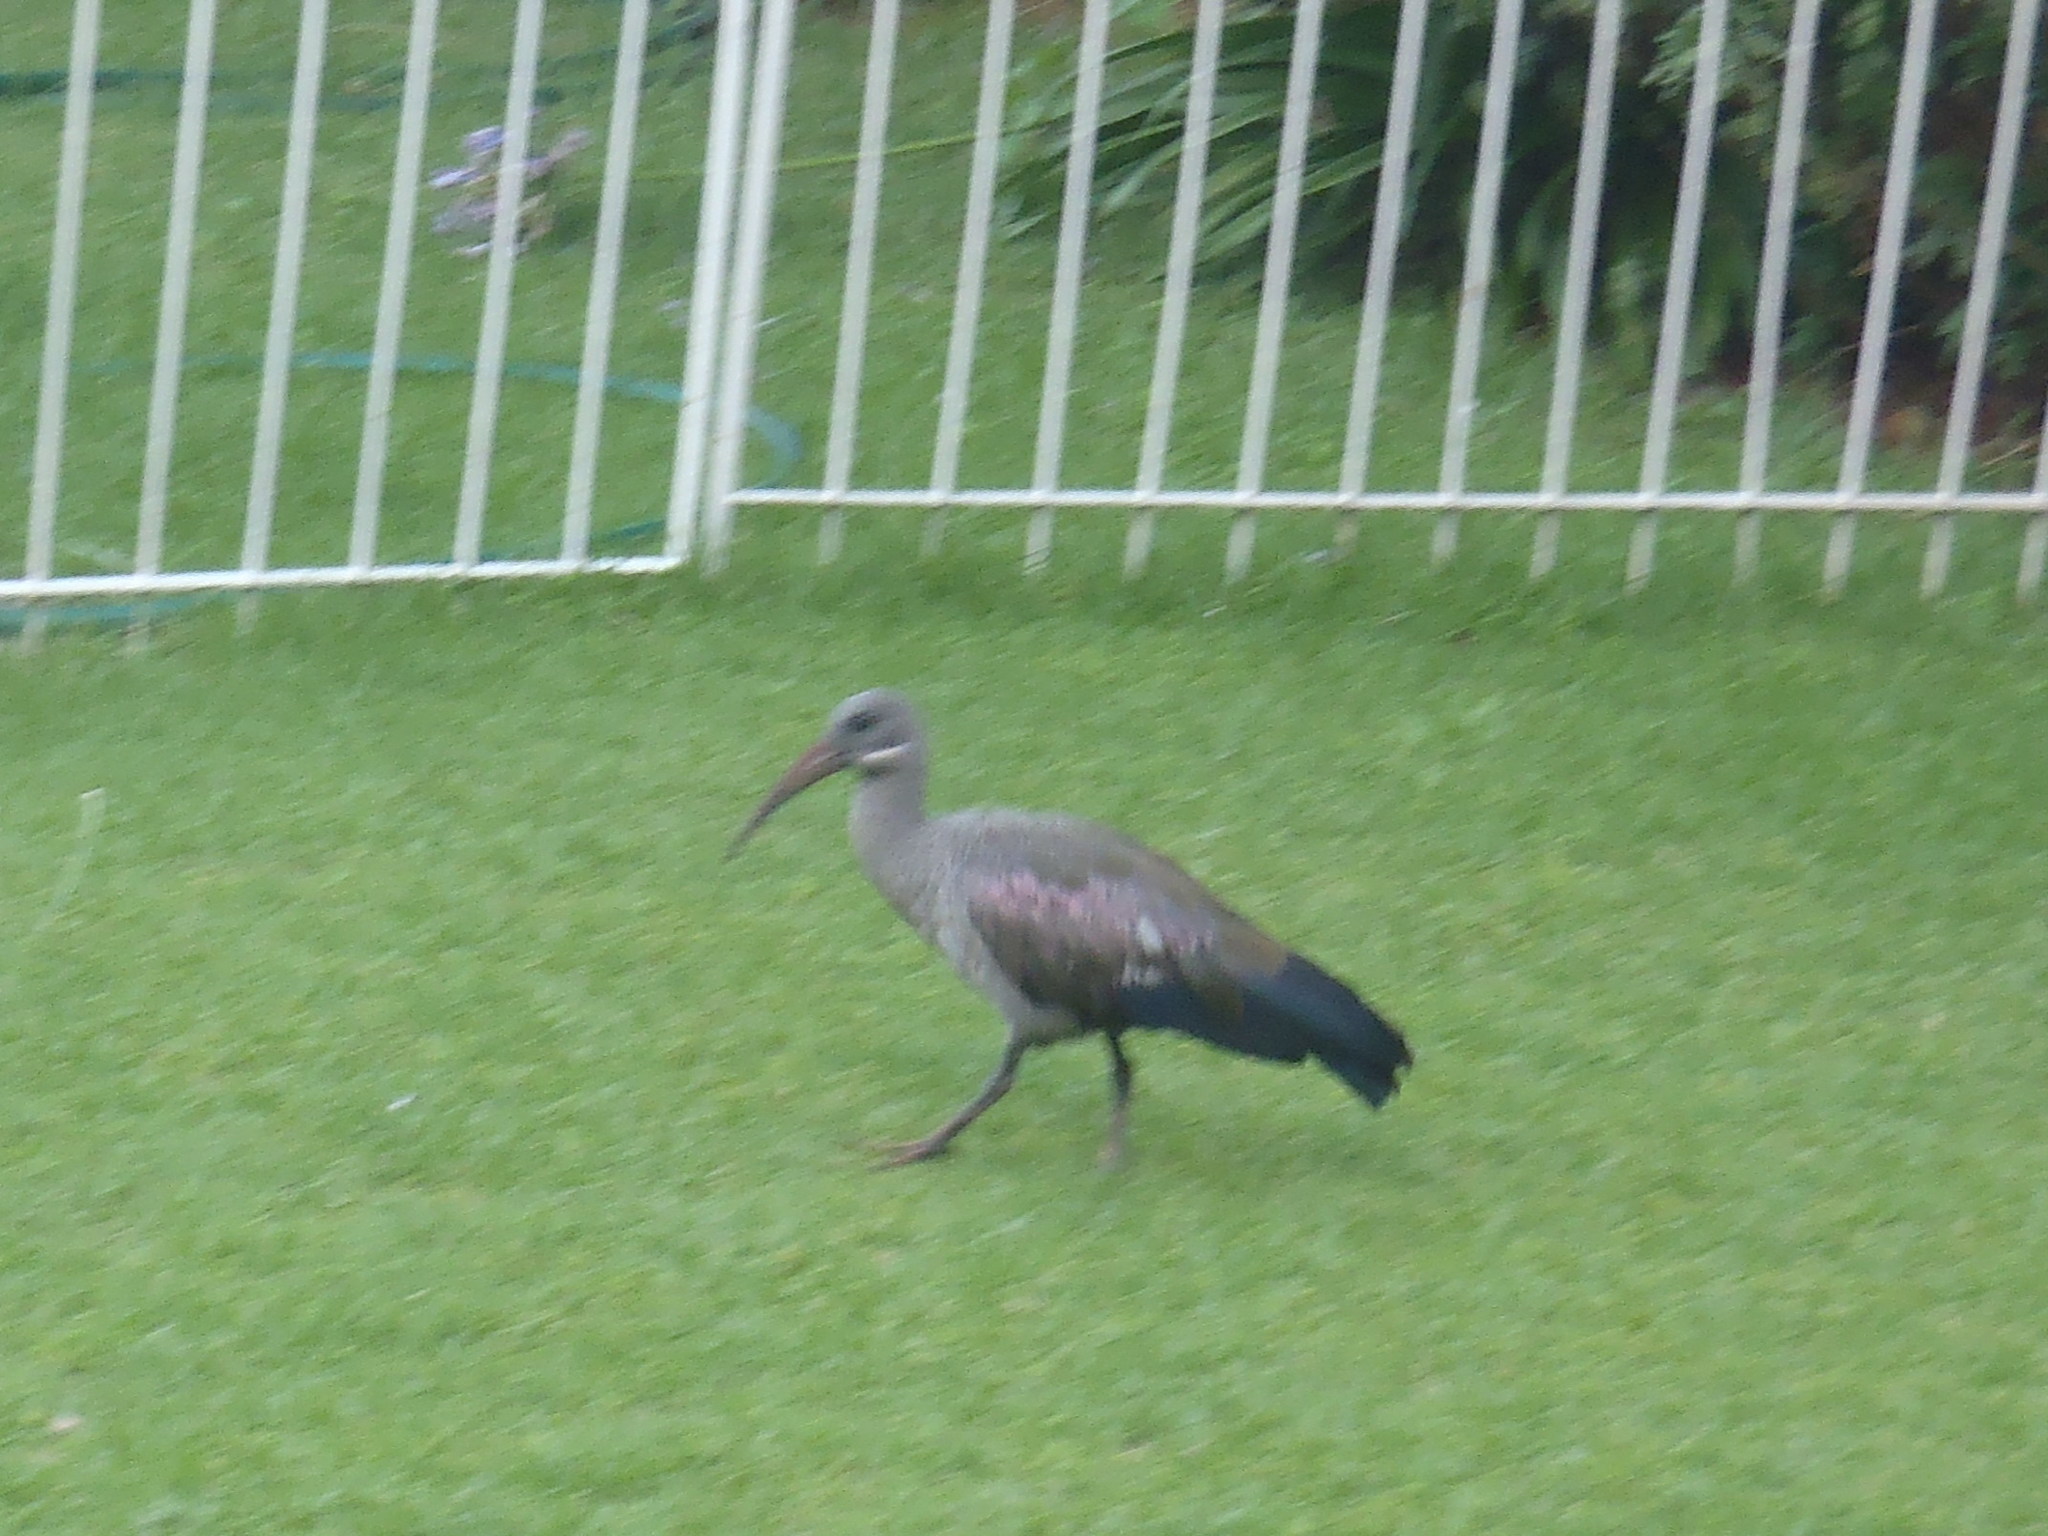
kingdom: Animalia
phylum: Chordata
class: Aves
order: Pelecaniformes
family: Threskiornithidae
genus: Bostrychia
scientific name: Bostrychia hagedash
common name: Hadada ibis
